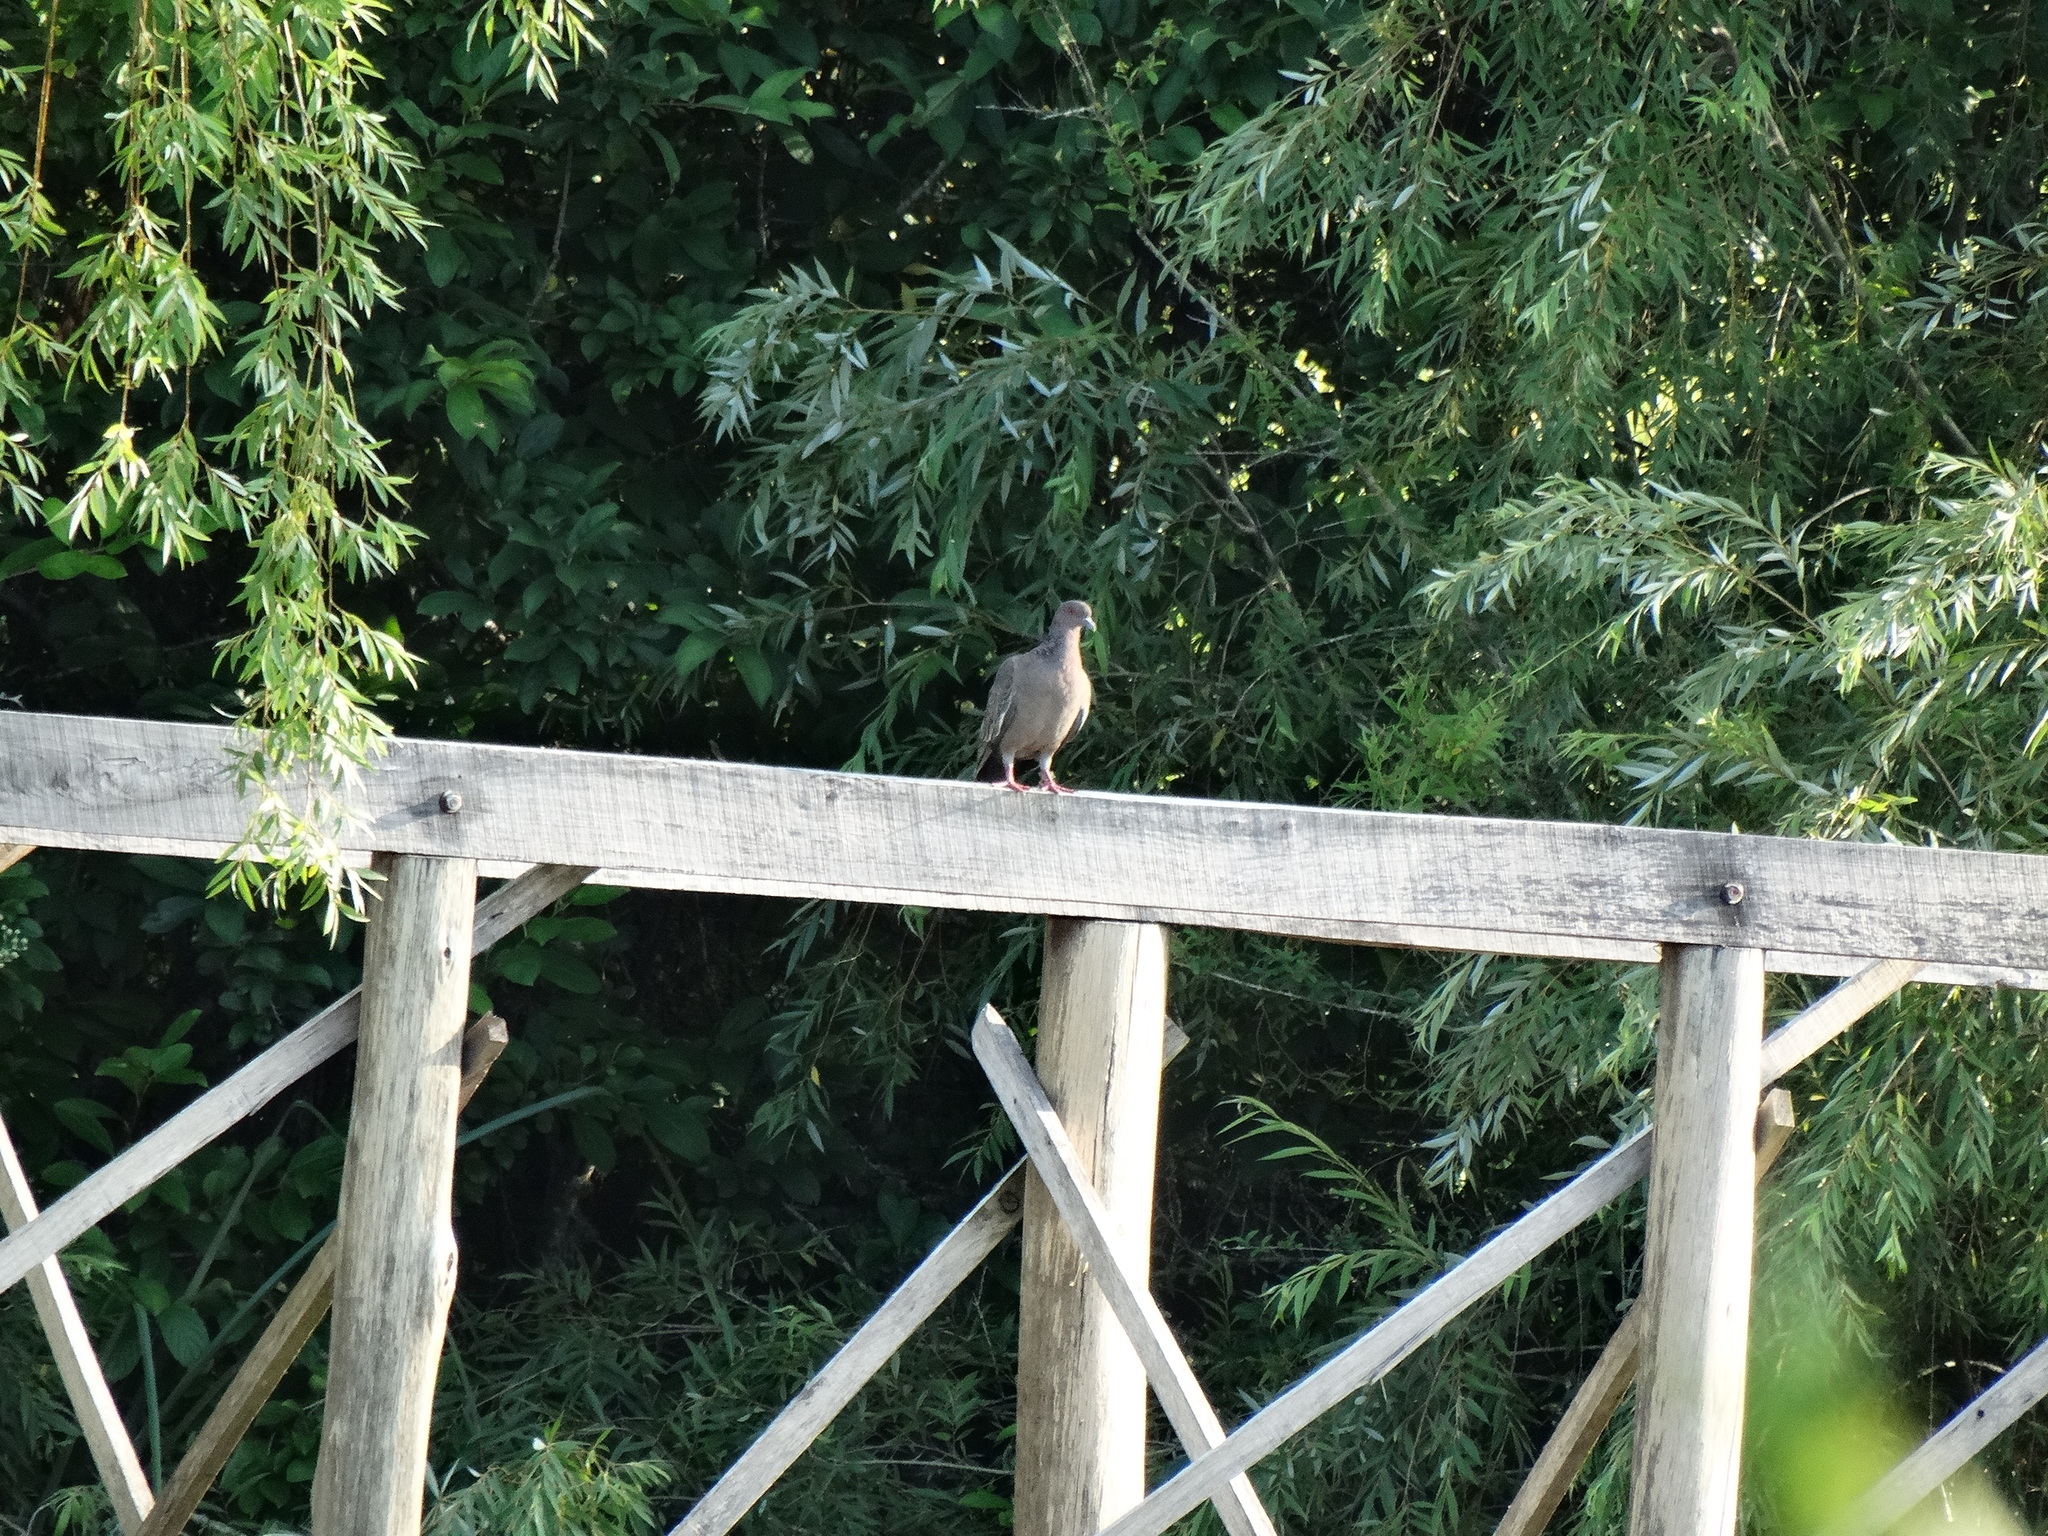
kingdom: Animalia
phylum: Chordata
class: Aves
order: Columbiformes
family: Columbidae
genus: Patagioenas
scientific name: Patagioenas picazuro
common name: Picazuro pigeon
